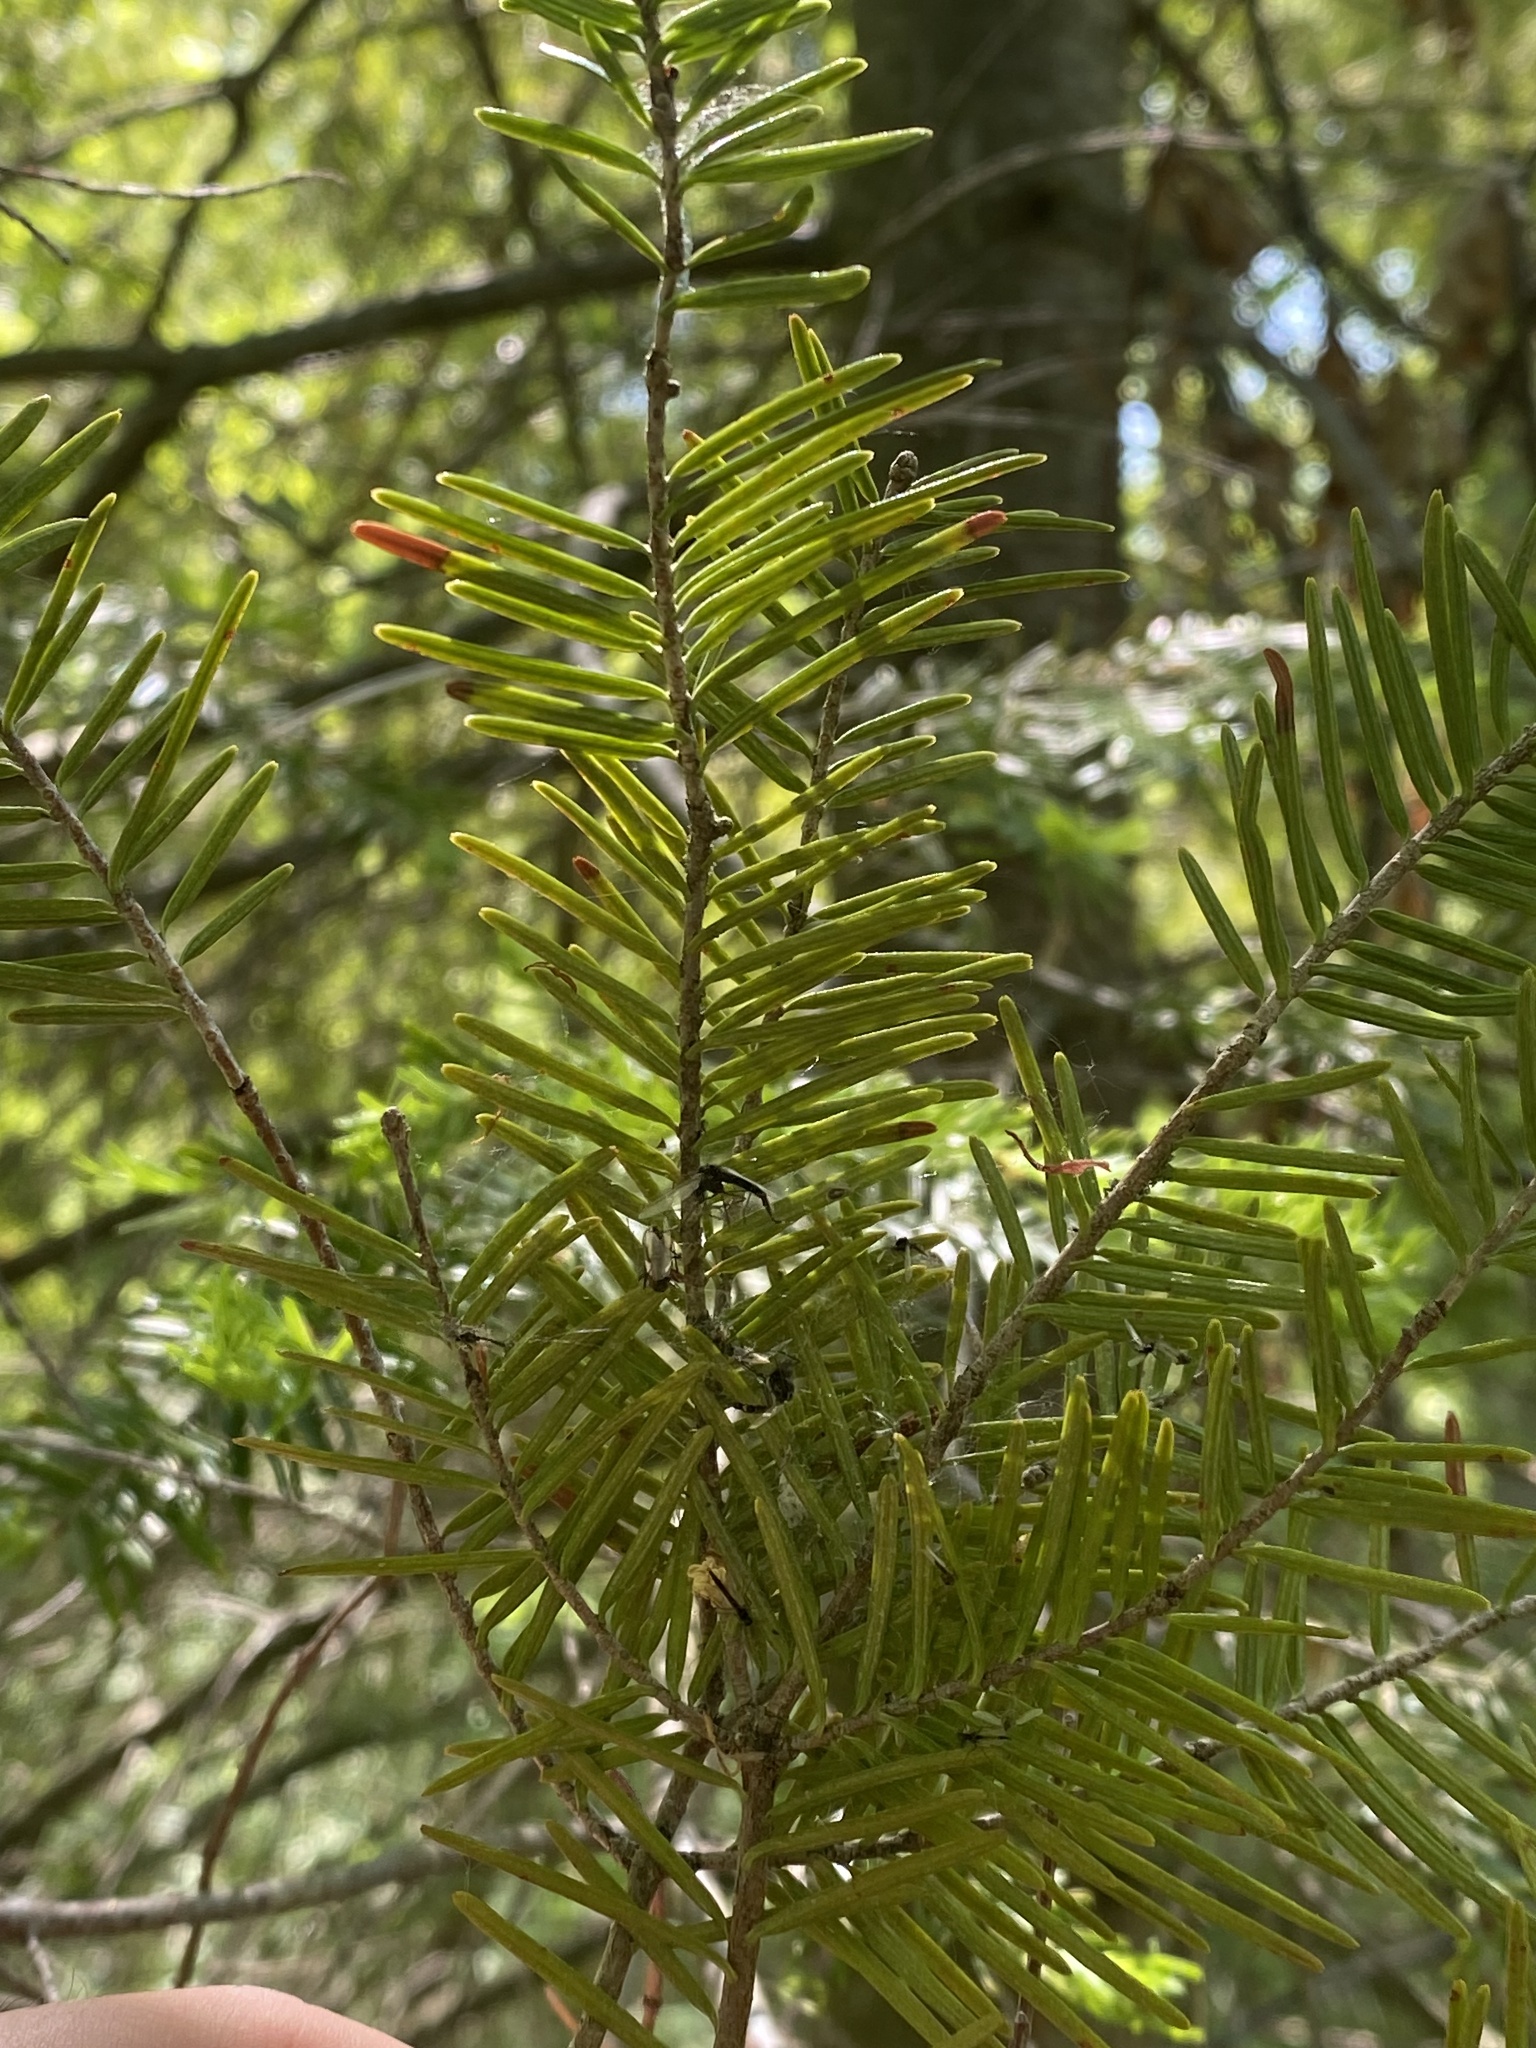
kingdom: Plantae
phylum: Tracheophyta
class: Pinopsida
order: Pinales
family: Pinaceae
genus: Abies
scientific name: Abies balsamea
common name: Balsam fir
